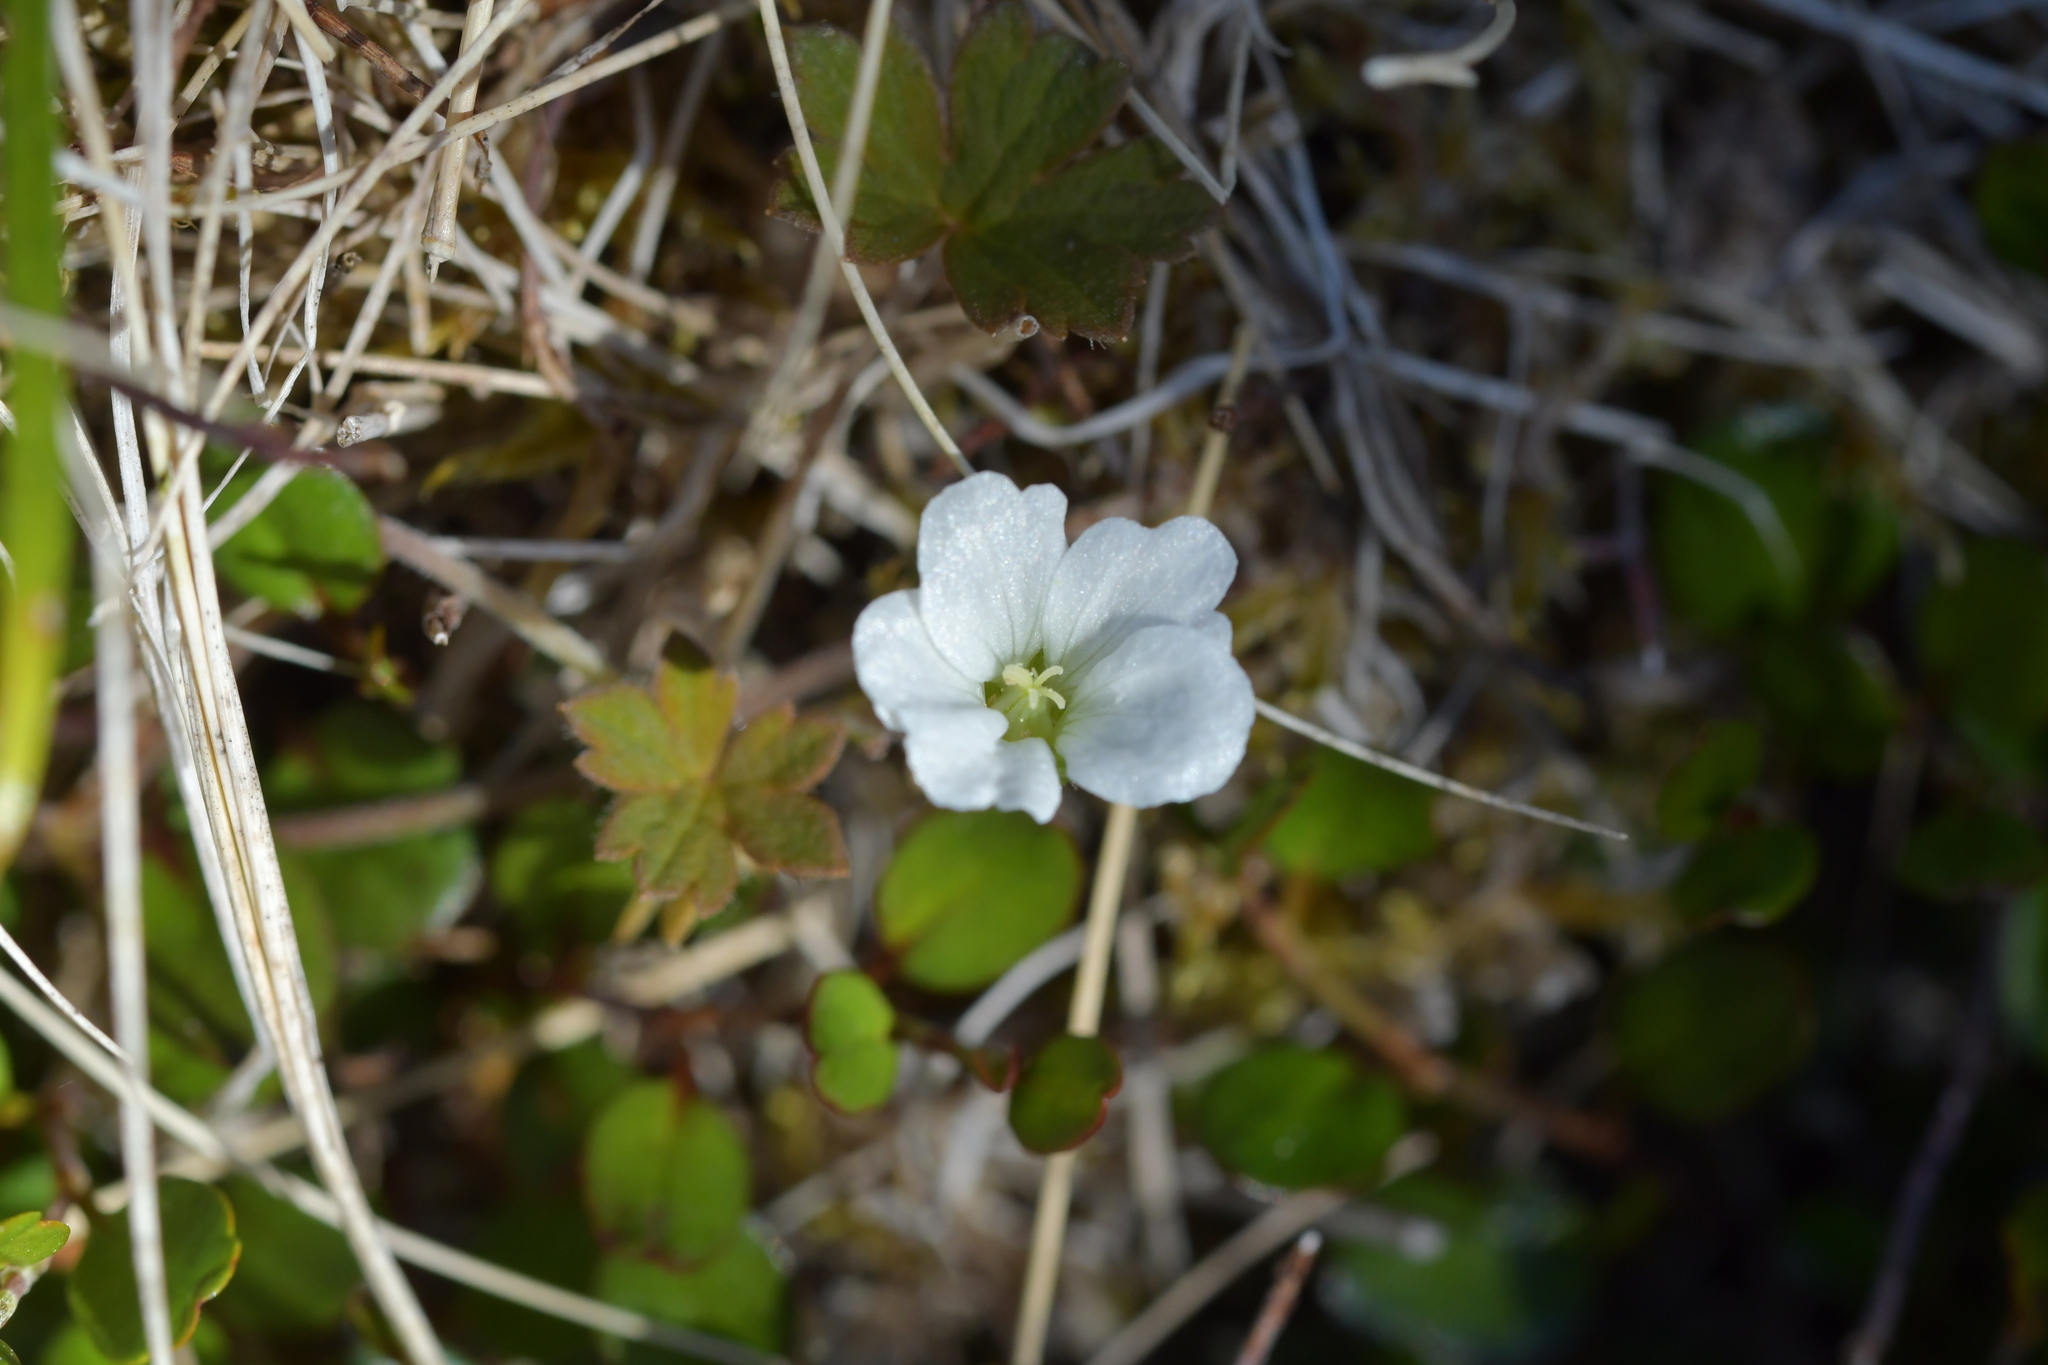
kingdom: Plantae
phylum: Tracheophyta
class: Magnoliopsida
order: Geraniales
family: Geraniaceae
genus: Geranium
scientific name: Geranium brevicaule
